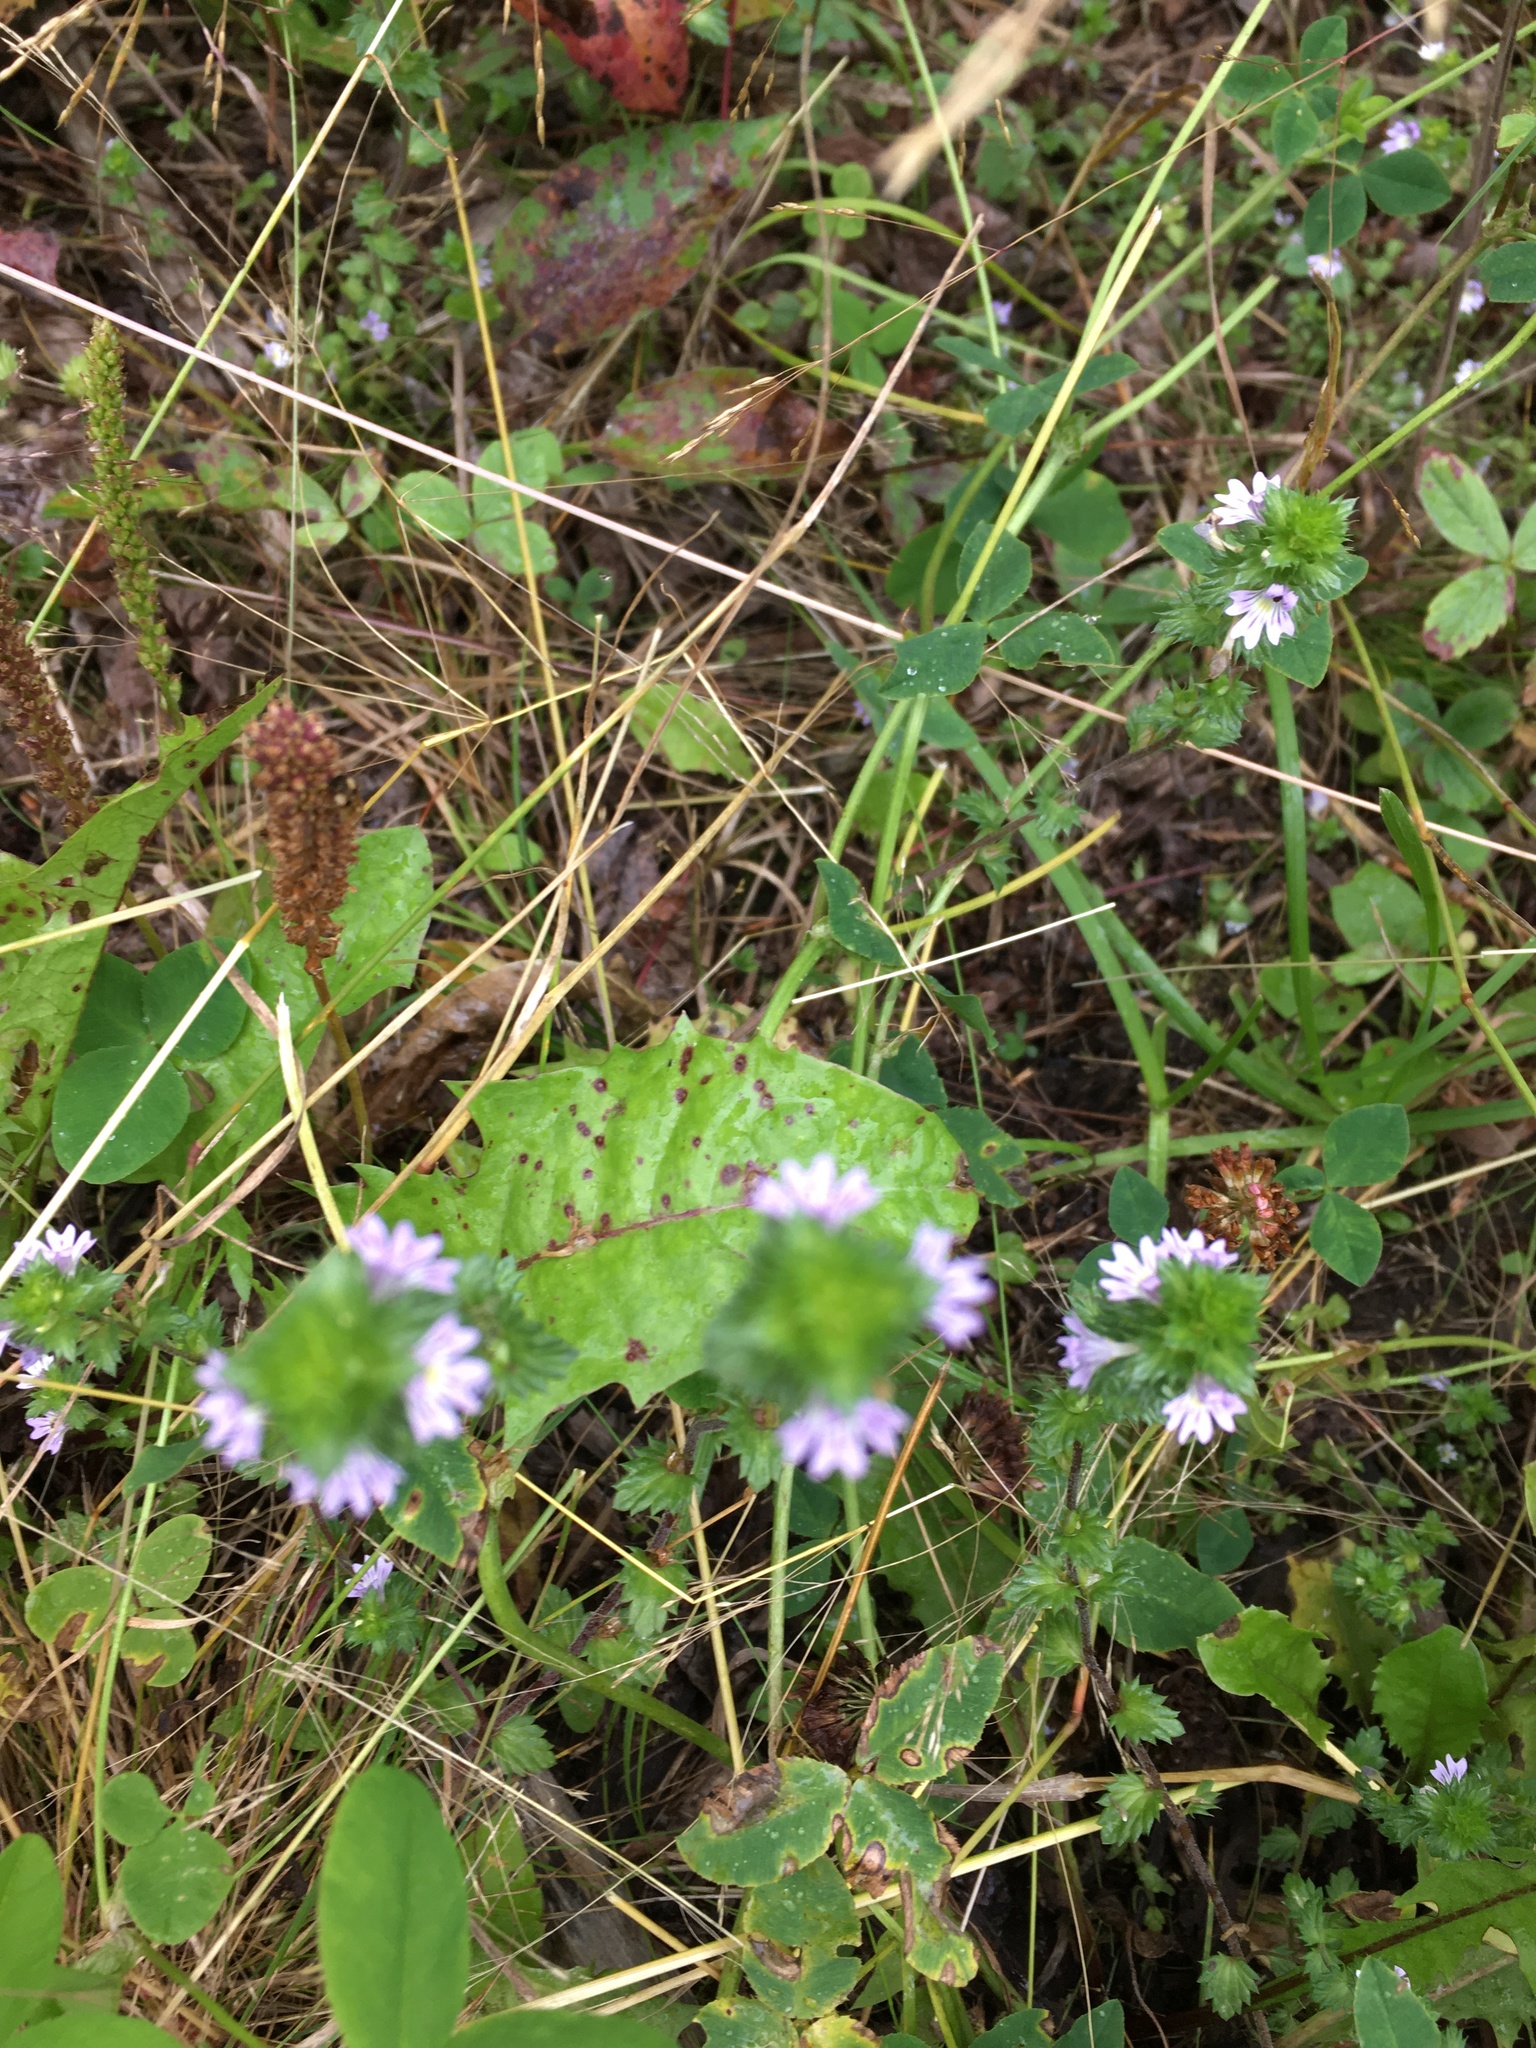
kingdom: Plantae
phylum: Tracheophyta
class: Magnoliopsida
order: Lamiales
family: Orobanchaceae
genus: Euphrasia
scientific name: Euphrasia nemorosa
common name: Common eyebright
